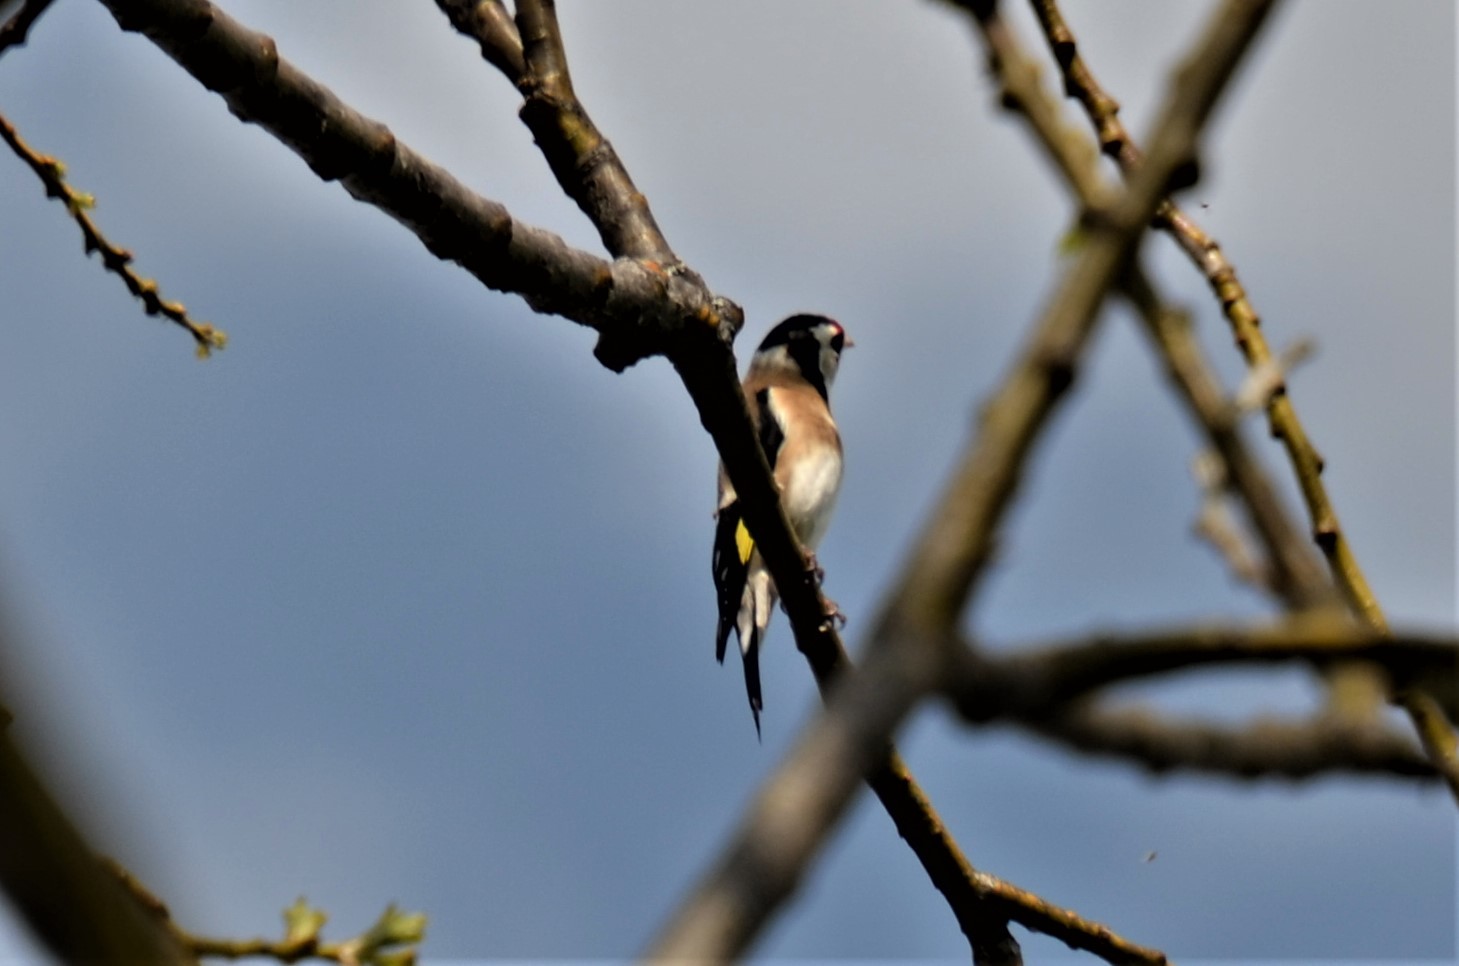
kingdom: Animalia
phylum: Chordata
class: Aves
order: Passeriformes
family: Fringillidae
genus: Carduelis
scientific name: Carduelis carduelis
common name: European goldfinch
